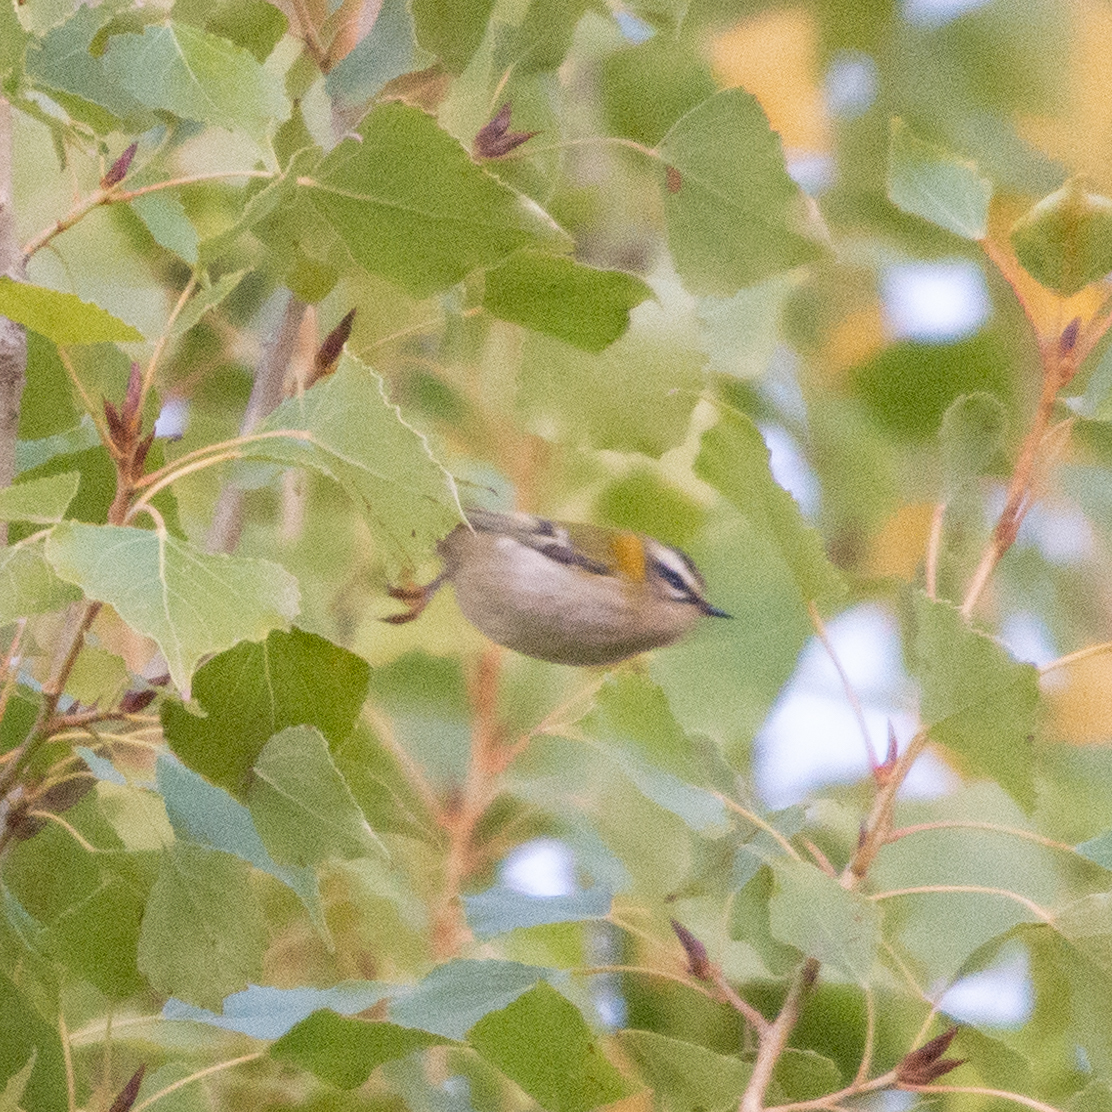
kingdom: Animalia
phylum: Chordata
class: Aves
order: Passeriformes
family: Regulidae
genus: Regulus
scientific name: Regulus ignicapilla
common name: Firecrest
